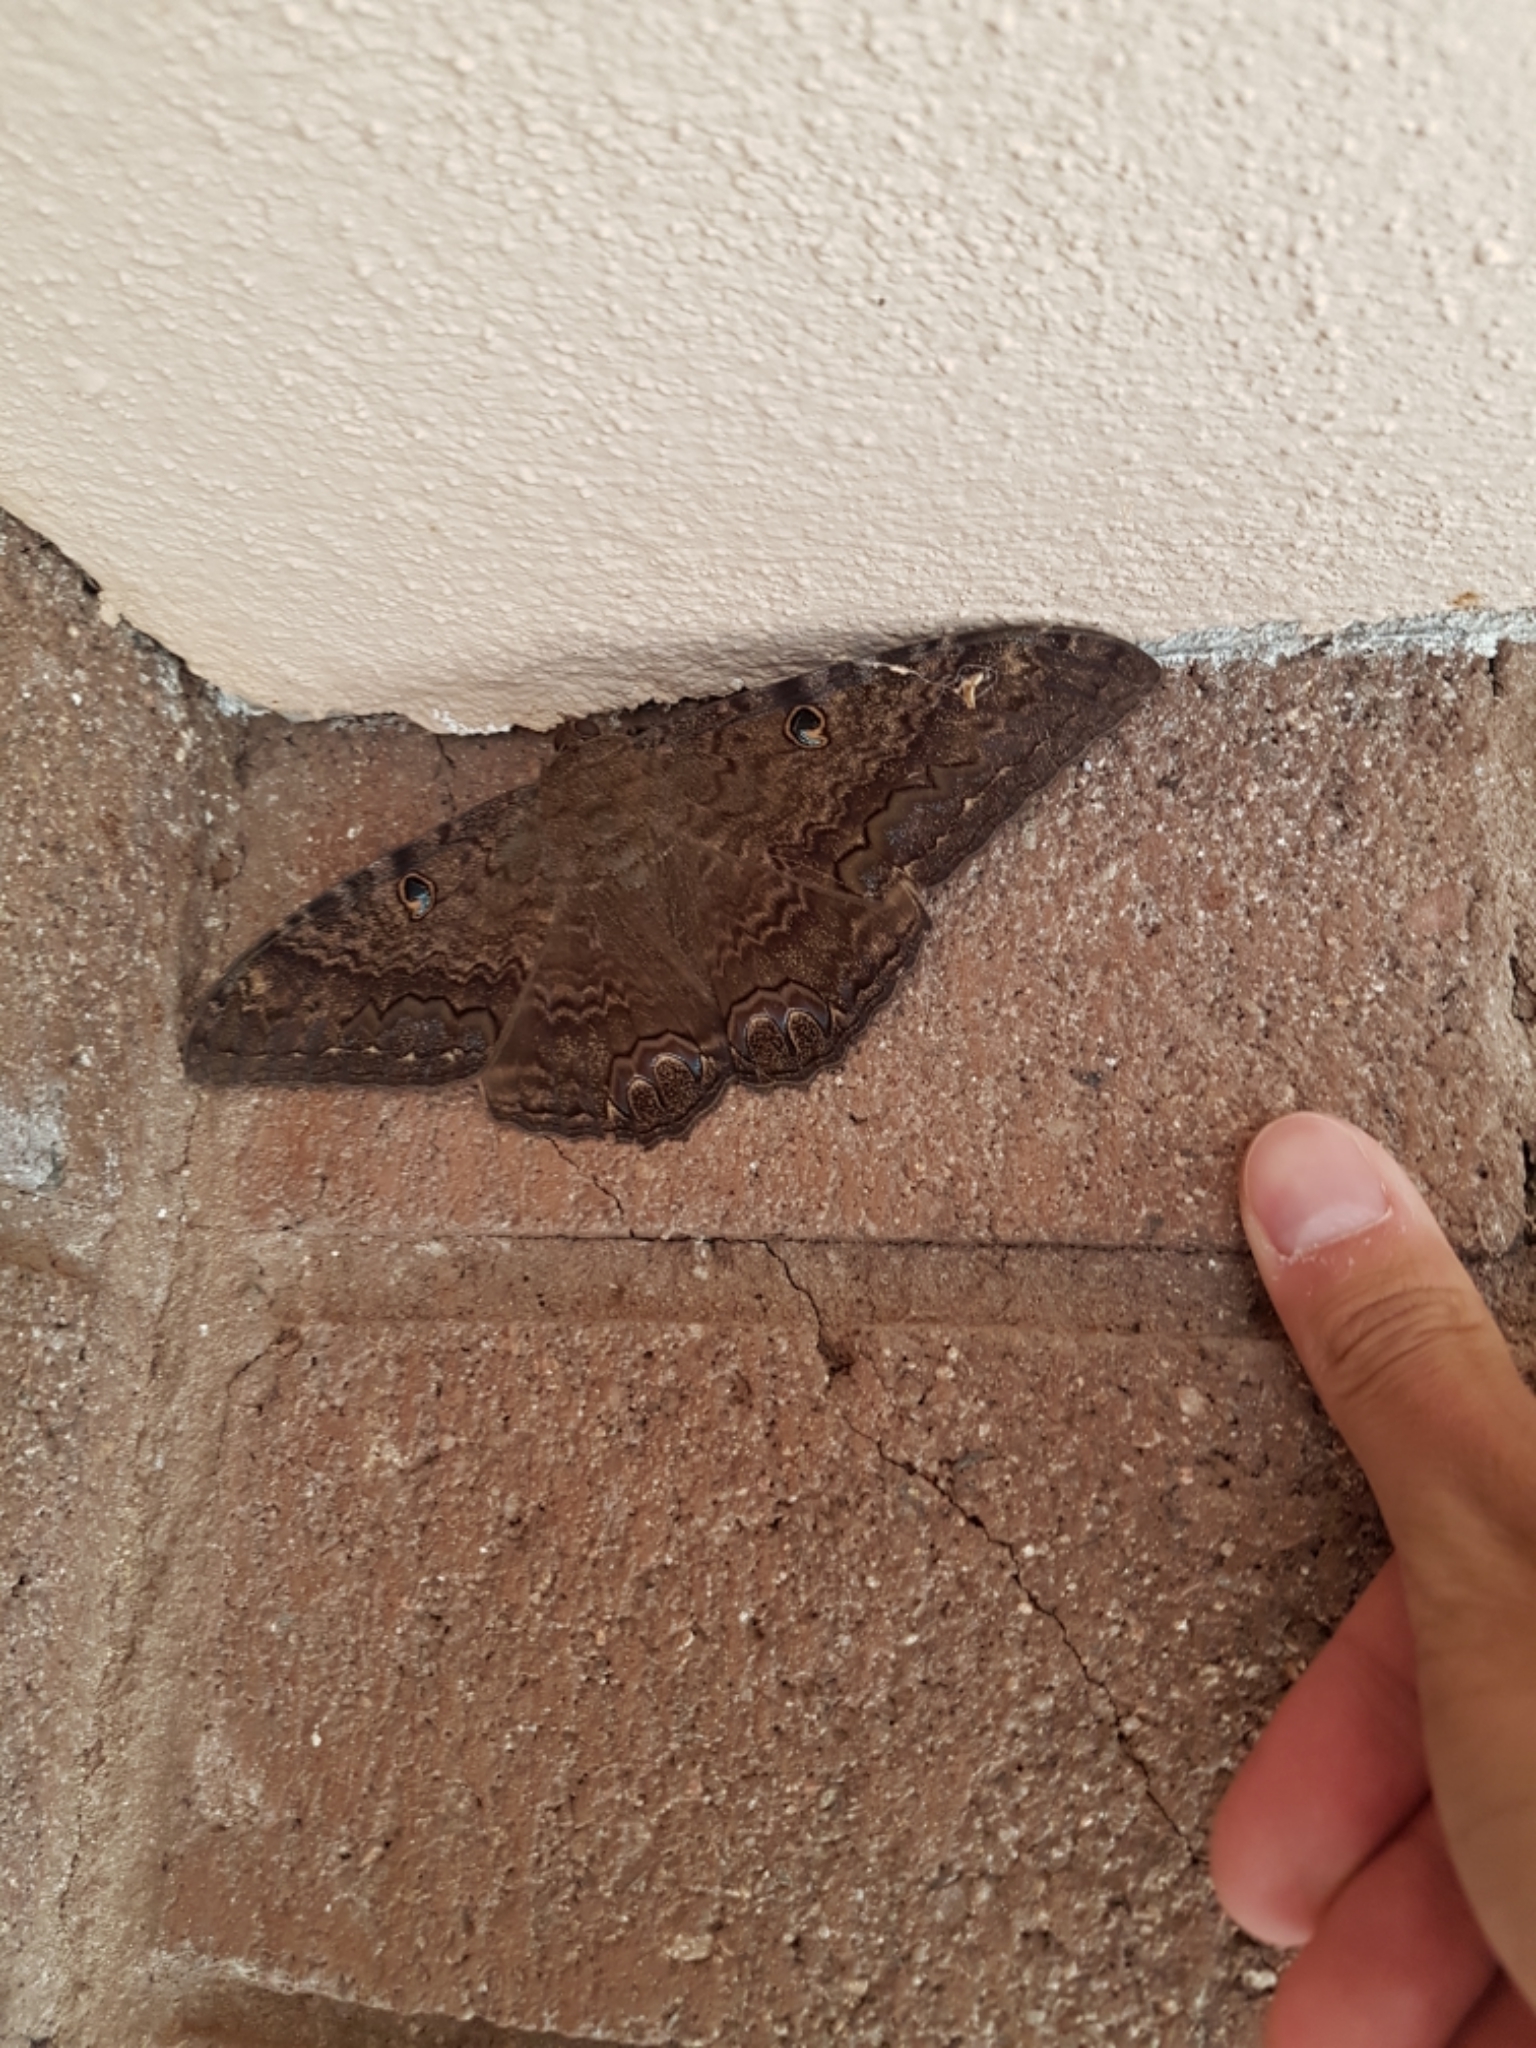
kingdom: Animalia
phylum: Arthropoda
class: Insecta
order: Lepidoptera
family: Erebidae
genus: Ascalapha
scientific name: Ascalapha odorata
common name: Black witch
